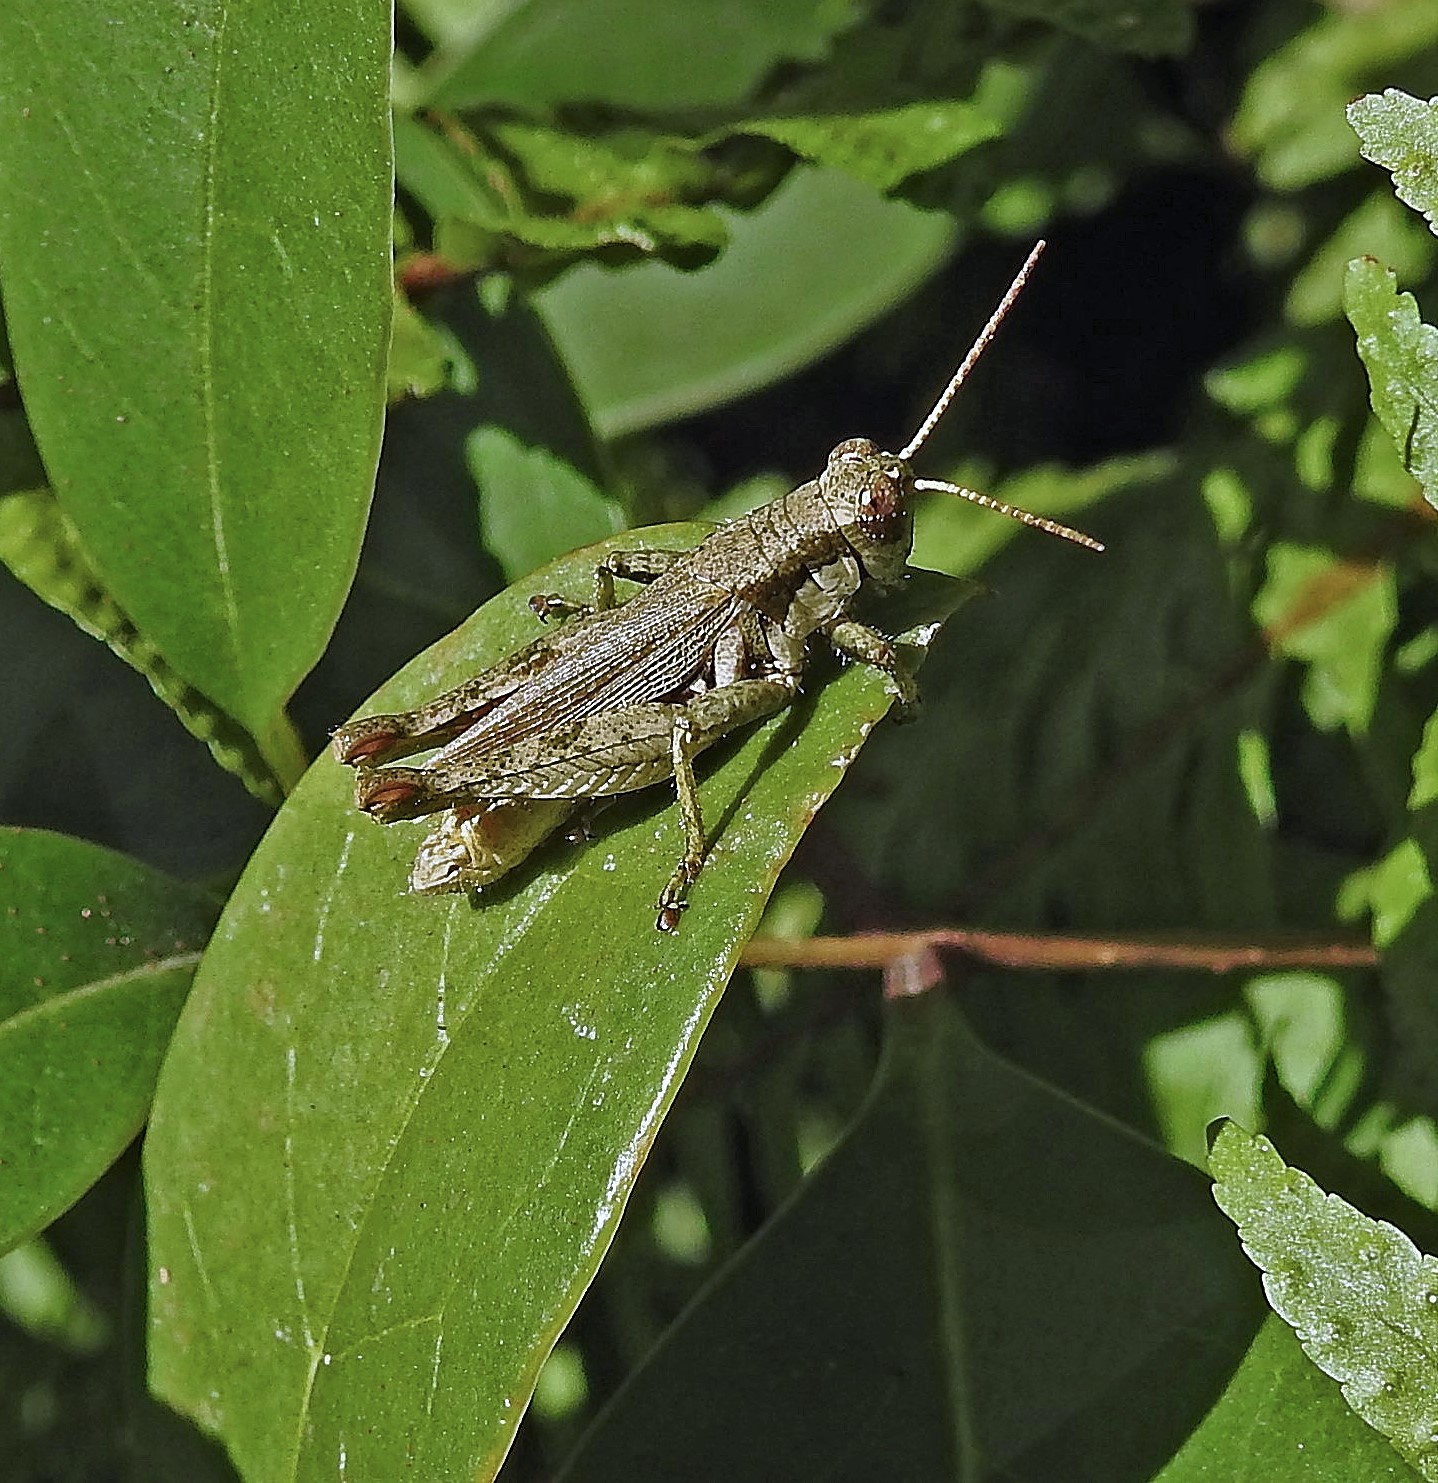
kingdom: Animalia
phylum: Arthropoda
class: Insecta
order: Orthoptera
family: Acrididae
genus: Ronderosia
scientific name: Ronderosia bergii
